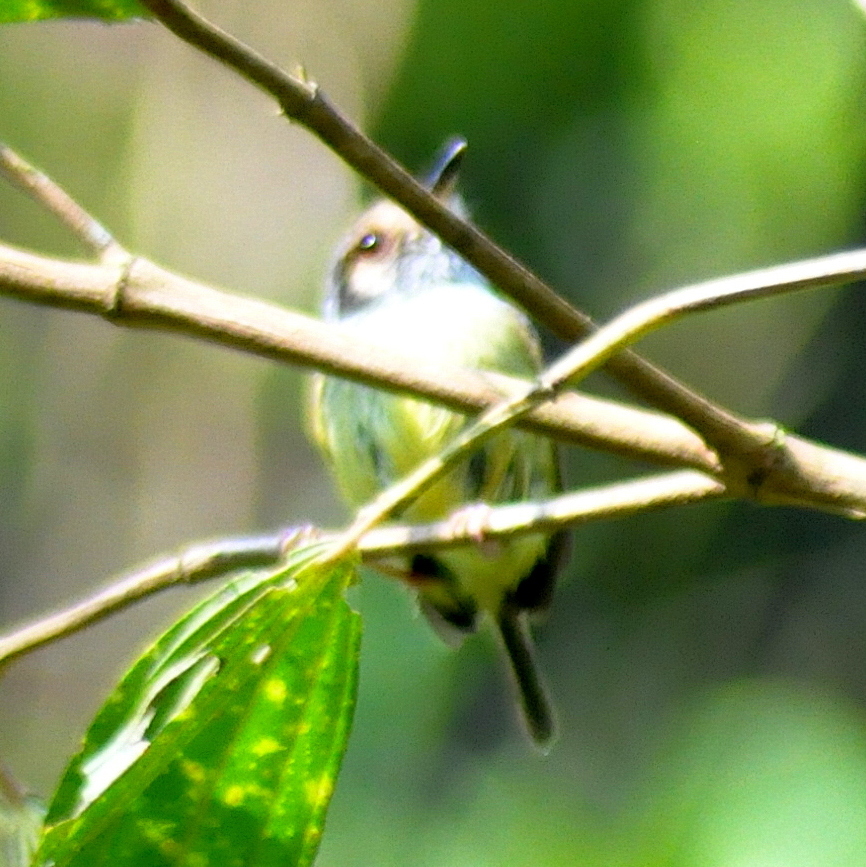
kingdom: Animalia
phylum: Chordata
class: Aves
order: Passeriformes
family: Tyrannidae
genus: Myiornis
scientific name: Myiornis auricularis
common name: Eared pygmy tyrant
